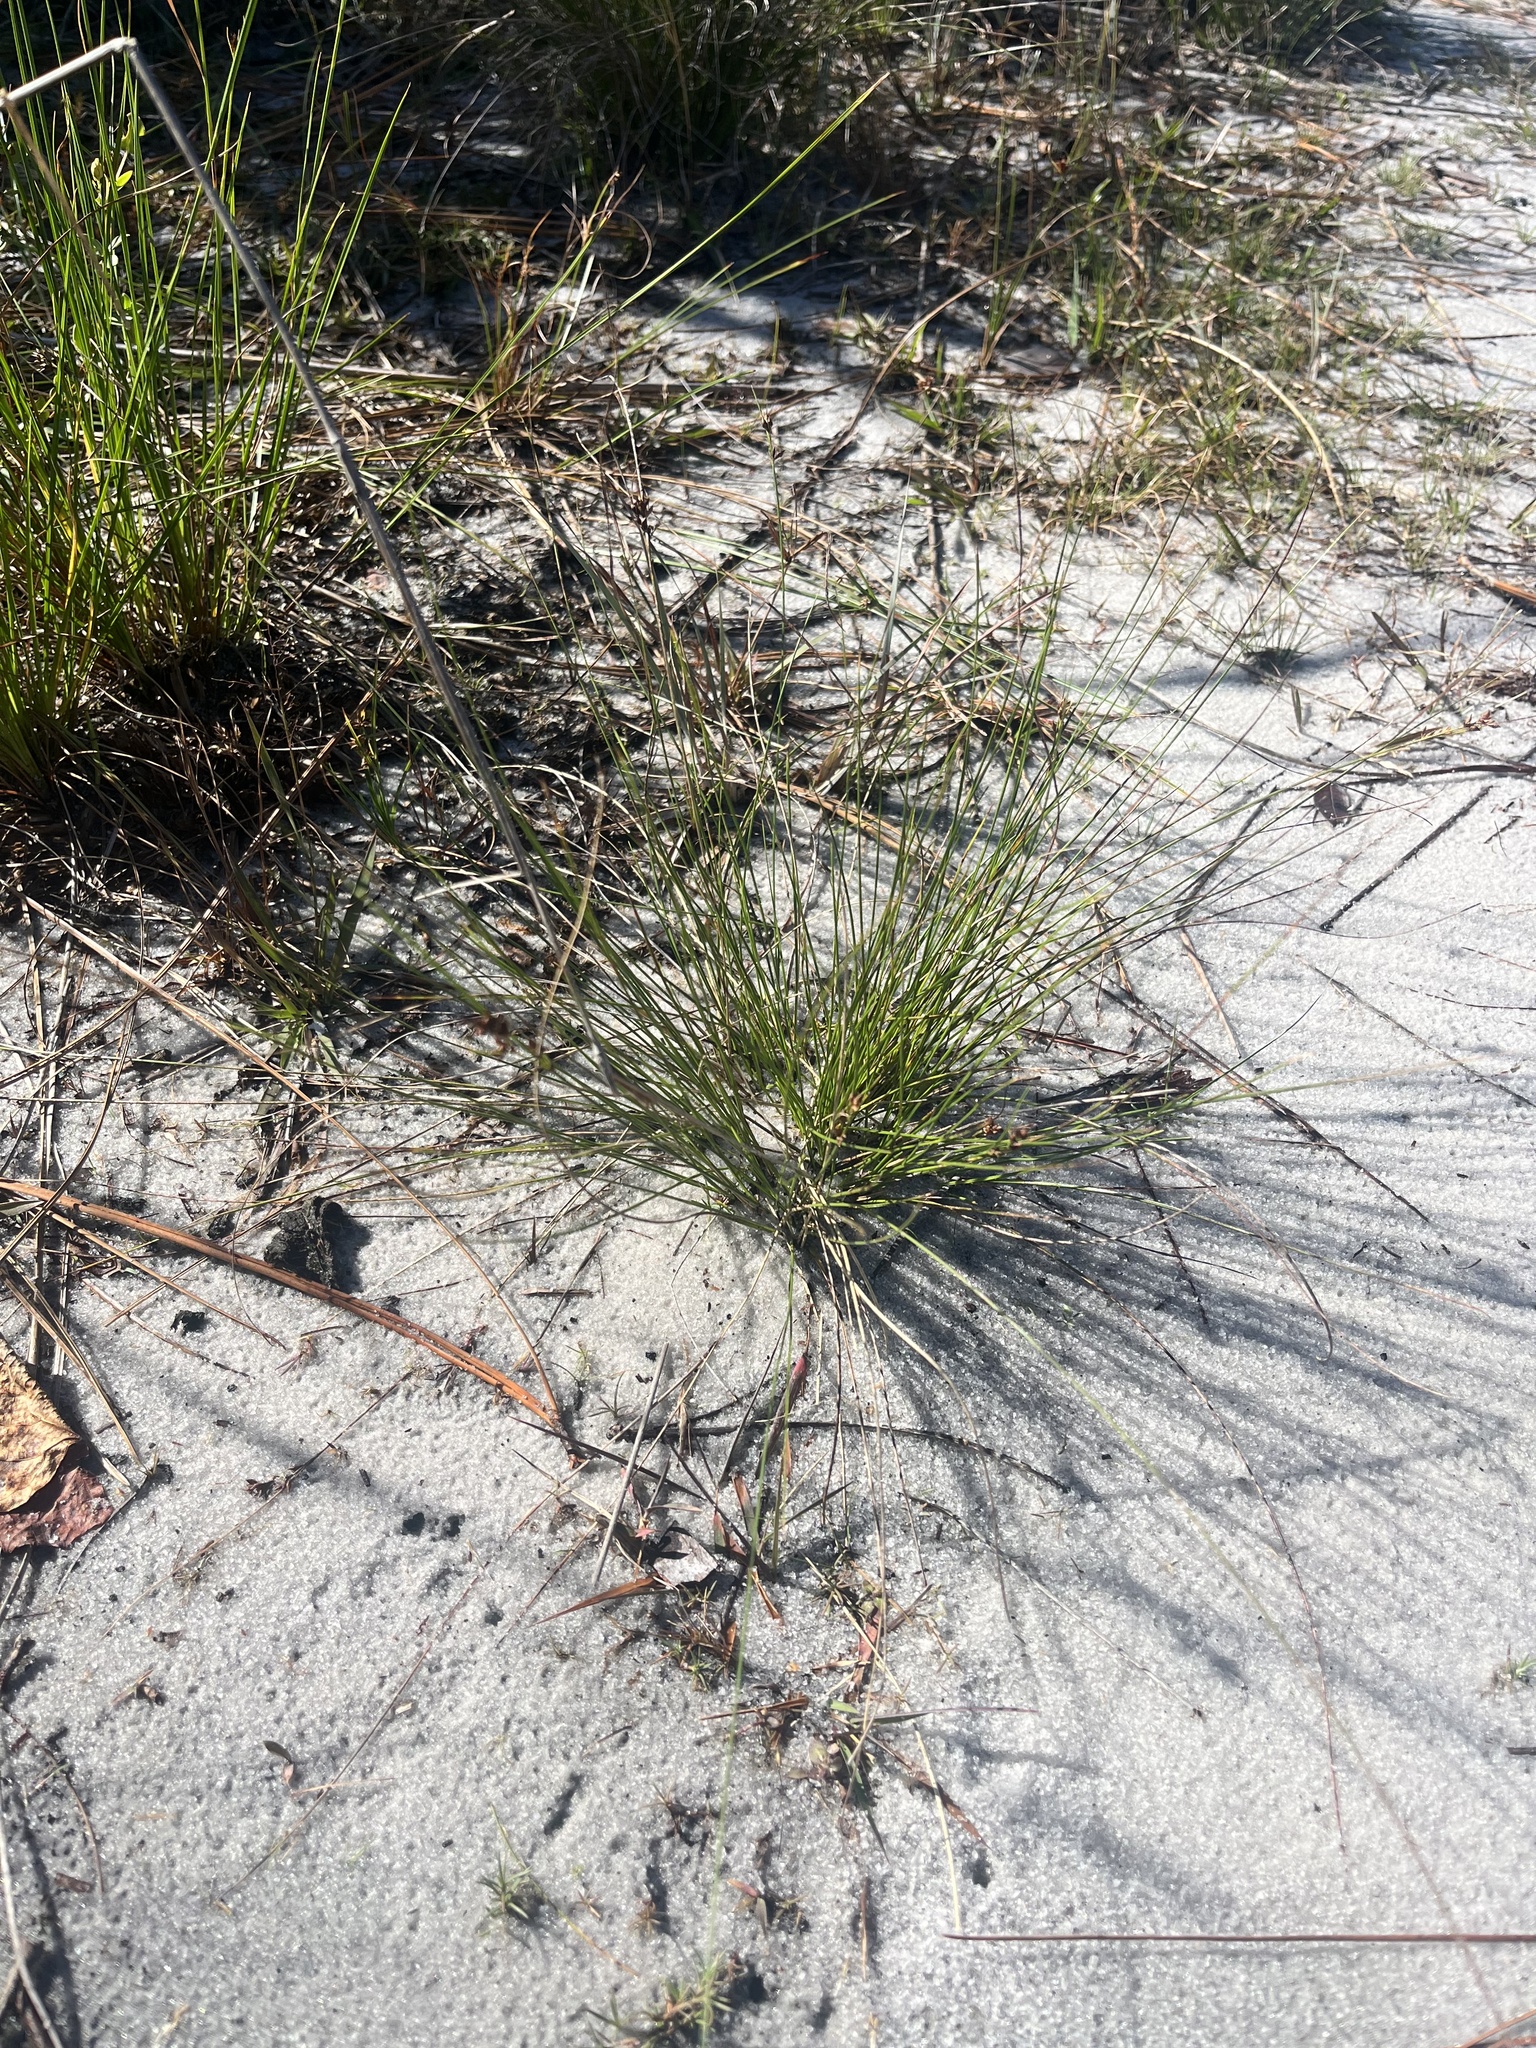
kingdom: Plantae
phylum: Tracheophyta
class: Liliopsida
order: Poales
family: Cyperaceae
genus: Rhynchospora
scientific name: Rhynchospora plumosa
